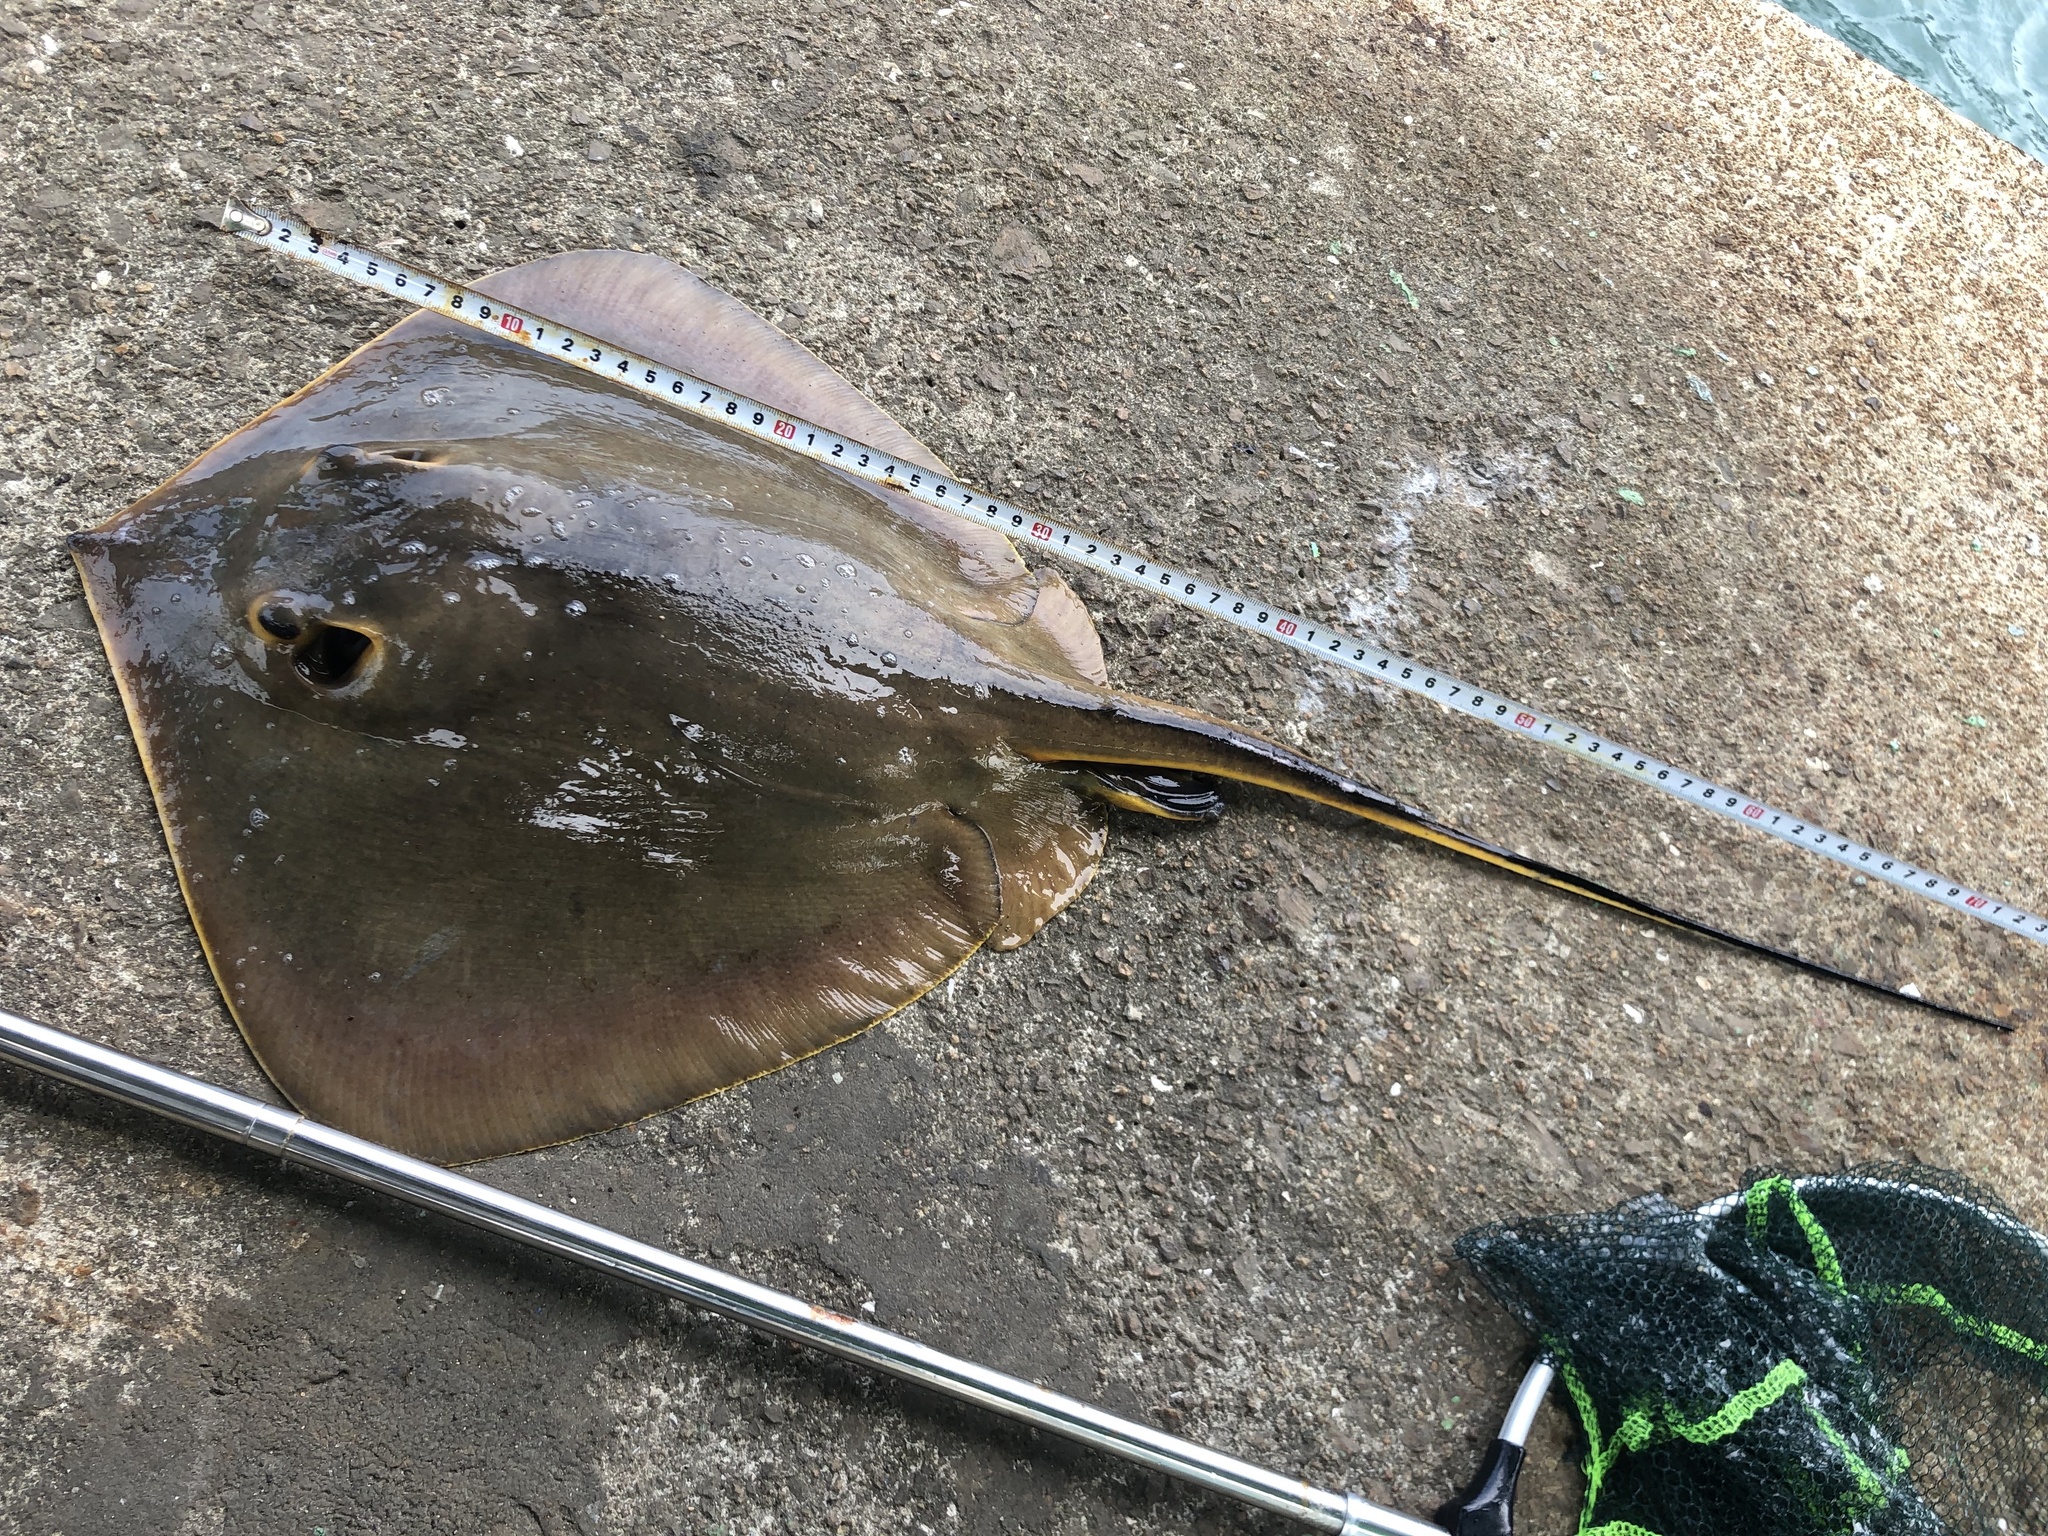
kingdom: Animalia
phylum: Chordata
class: Elasmobranchii
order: Myliobatiformes
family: Dasyatidae
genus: Hemitrygon
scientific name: Hemitrygon akajei
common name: Red stingray
